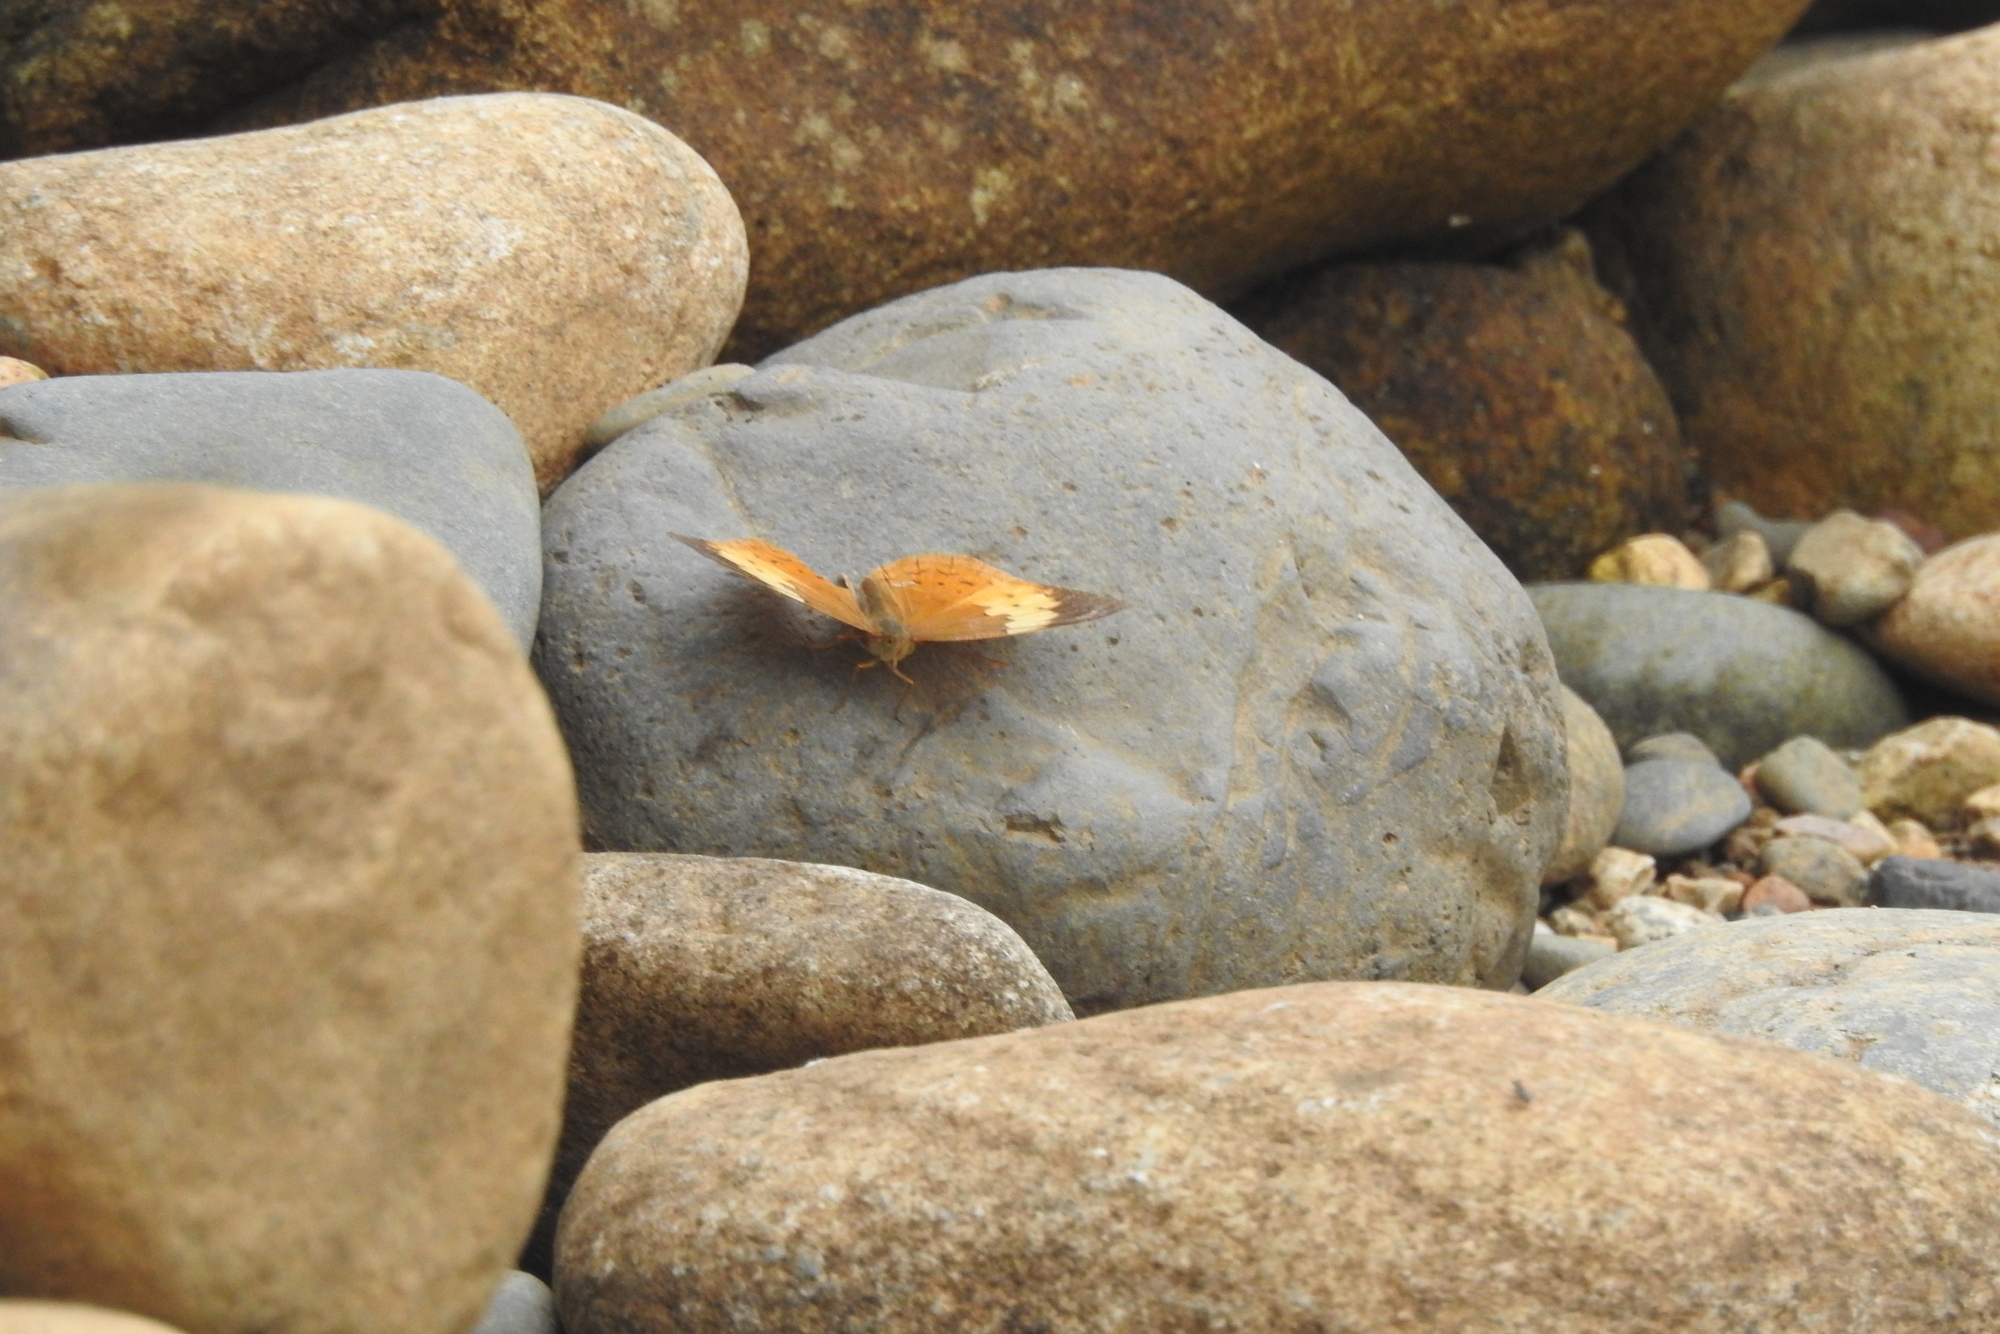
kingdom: Animalia
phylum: Arthropoda
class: Insecta
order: Lepidoptera
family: Nymphalidae
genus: Cupha
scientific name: Cupha erymanthis
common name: Rustic
